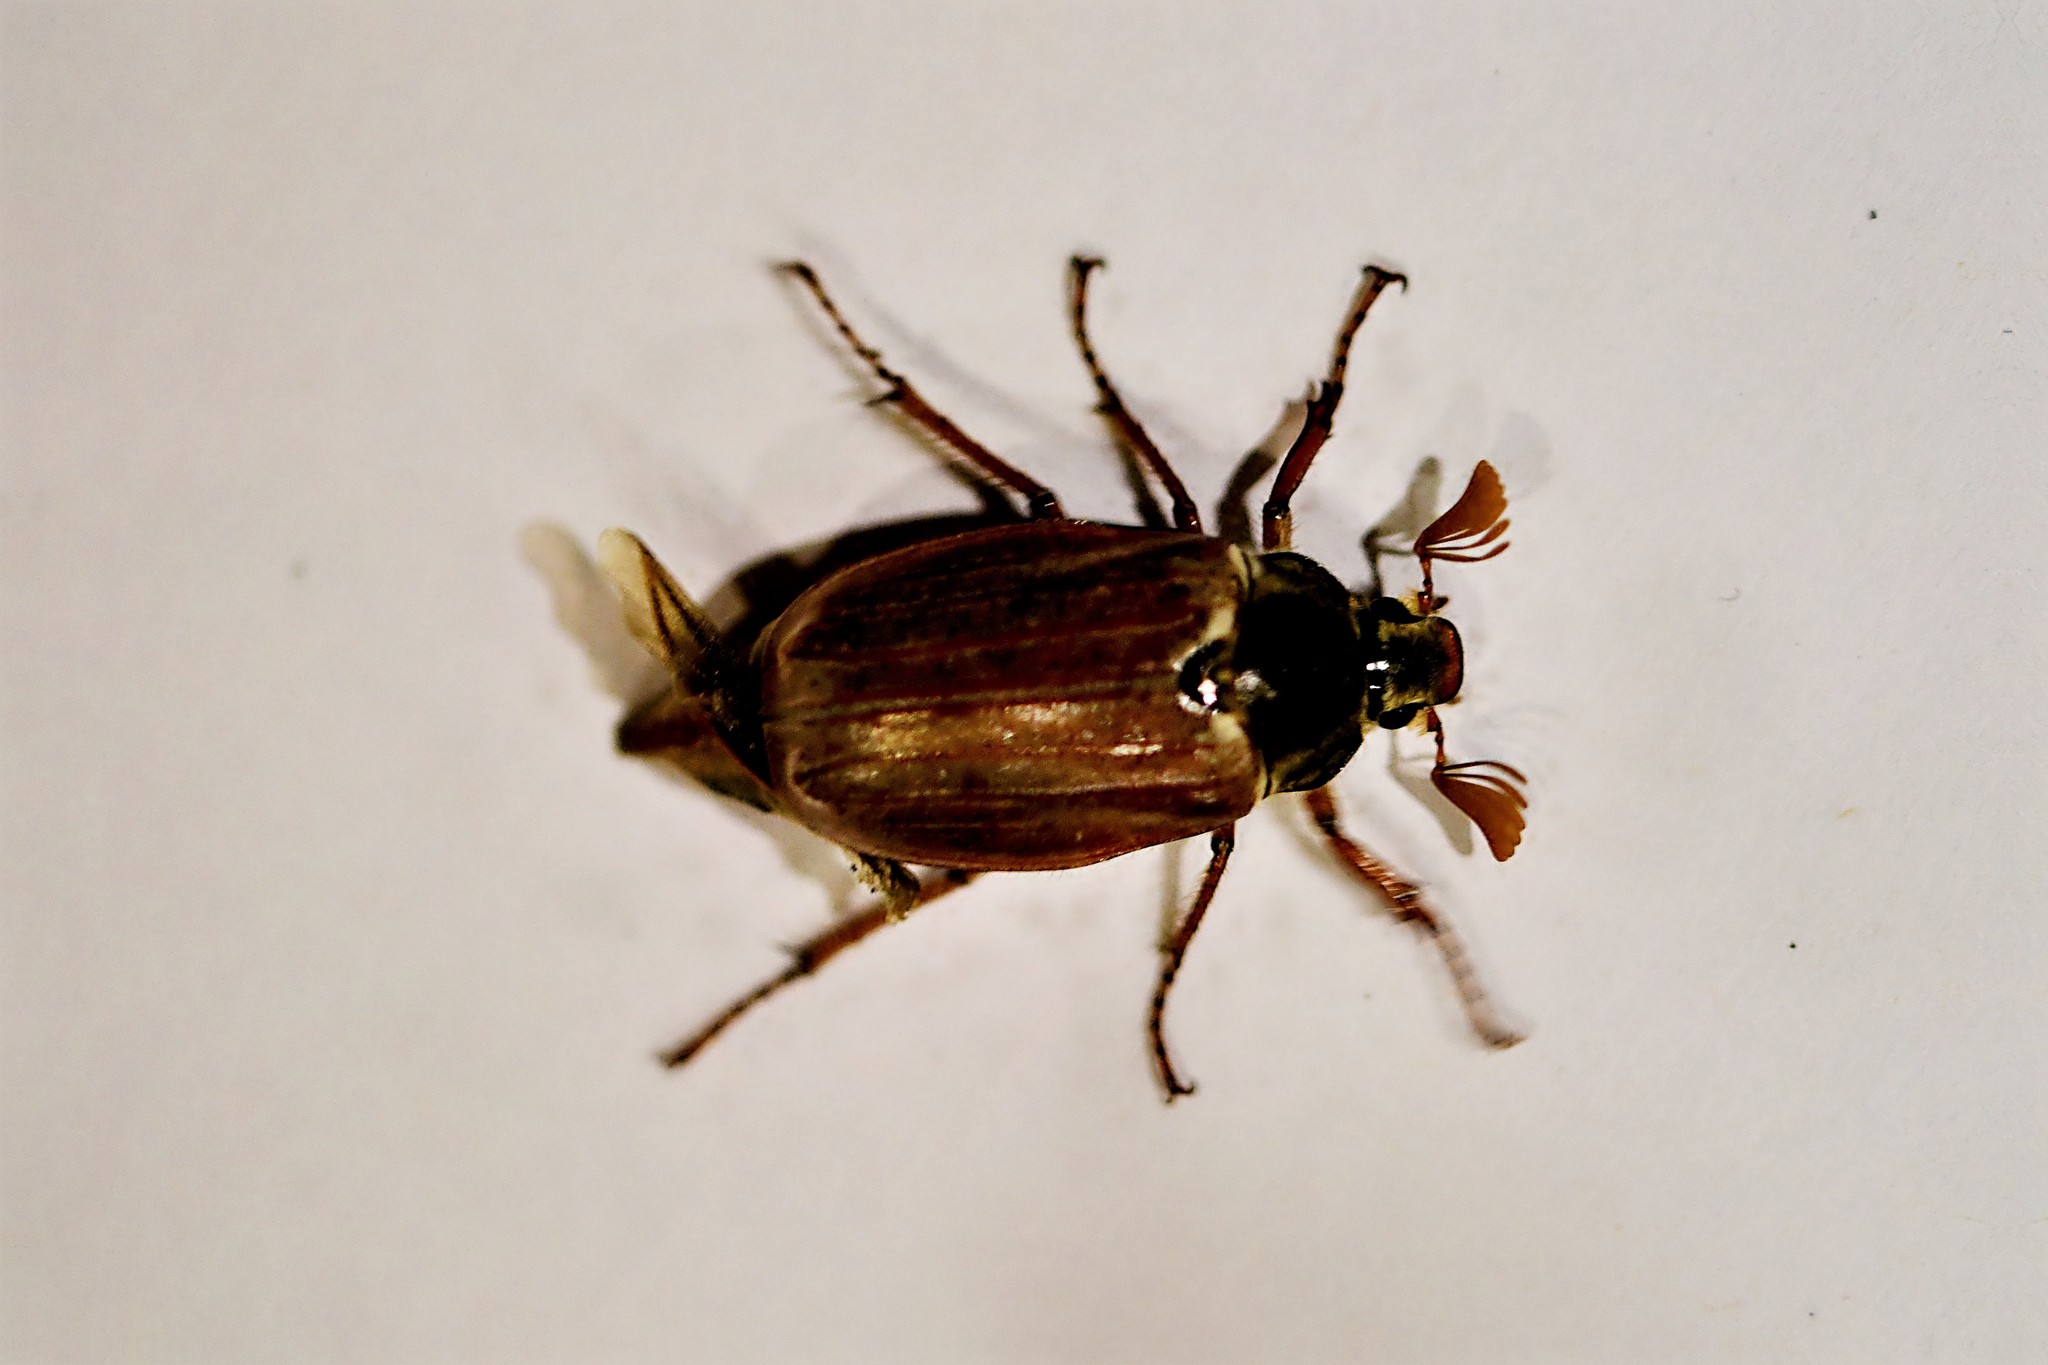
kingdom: Animalia
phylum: Arthropoda
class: Insecta
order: Coleoptera
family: Scarabaeidae
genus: Melolontha
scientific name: Melolontha melolontha
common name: Cockchafer maybeetle
